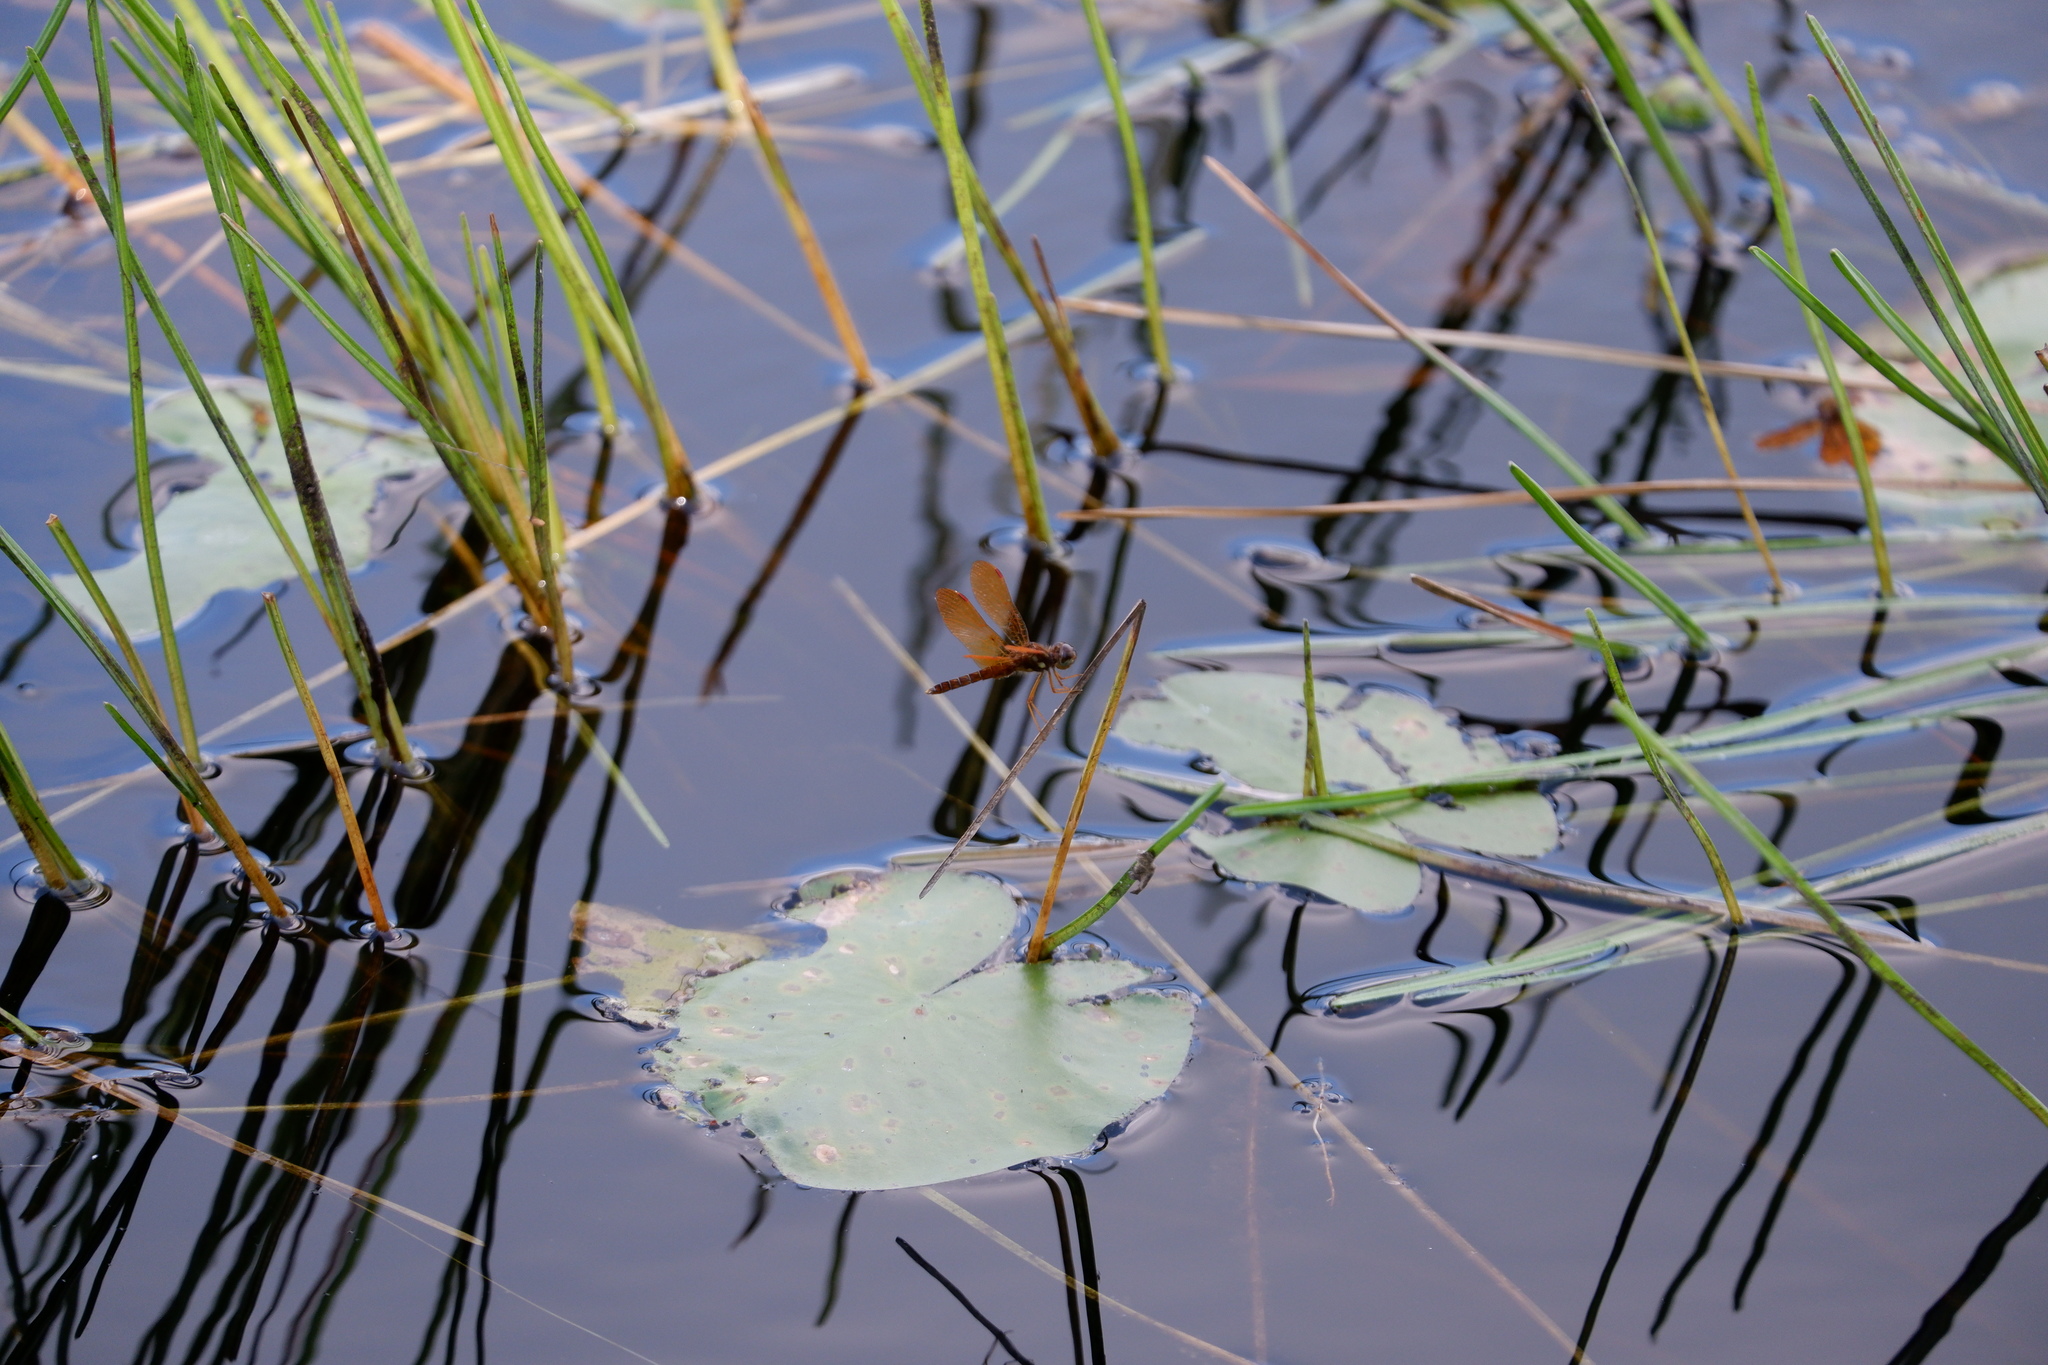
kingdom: Animalia
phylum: Arthropoda
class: Insecta
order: Odonata
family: Libellulidae
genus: Perithemis
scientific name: Perithemis tenera
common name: Eastern amberwing
